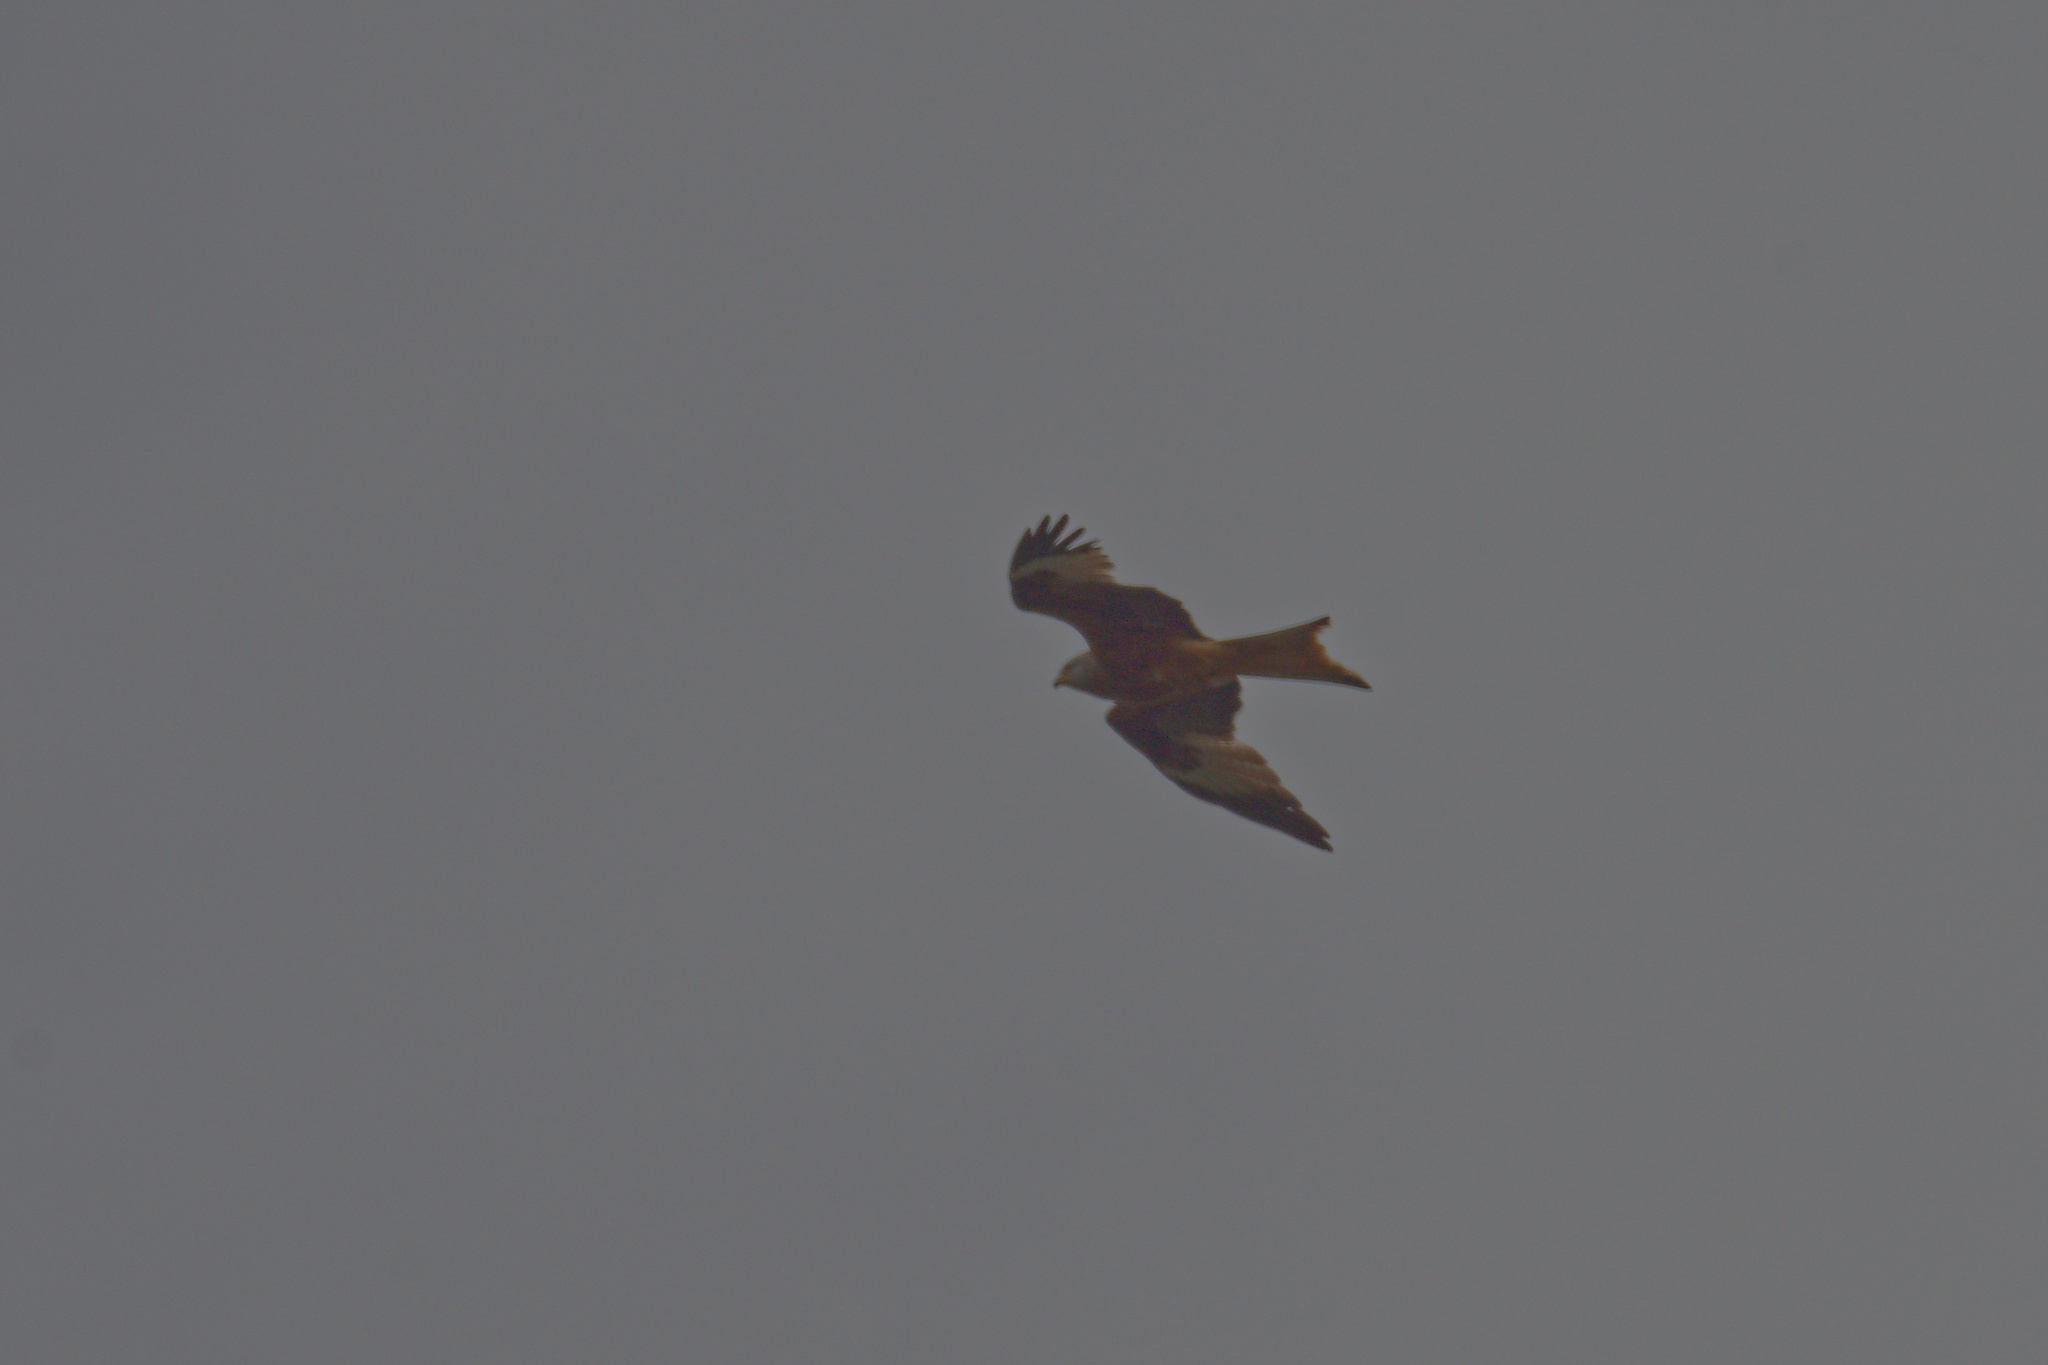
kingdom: Animalia
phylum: Chordata
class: Aves
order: Accipitriformes
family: Accipitridae
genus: Milvus
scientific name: Milvus milvus
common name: Red kite
